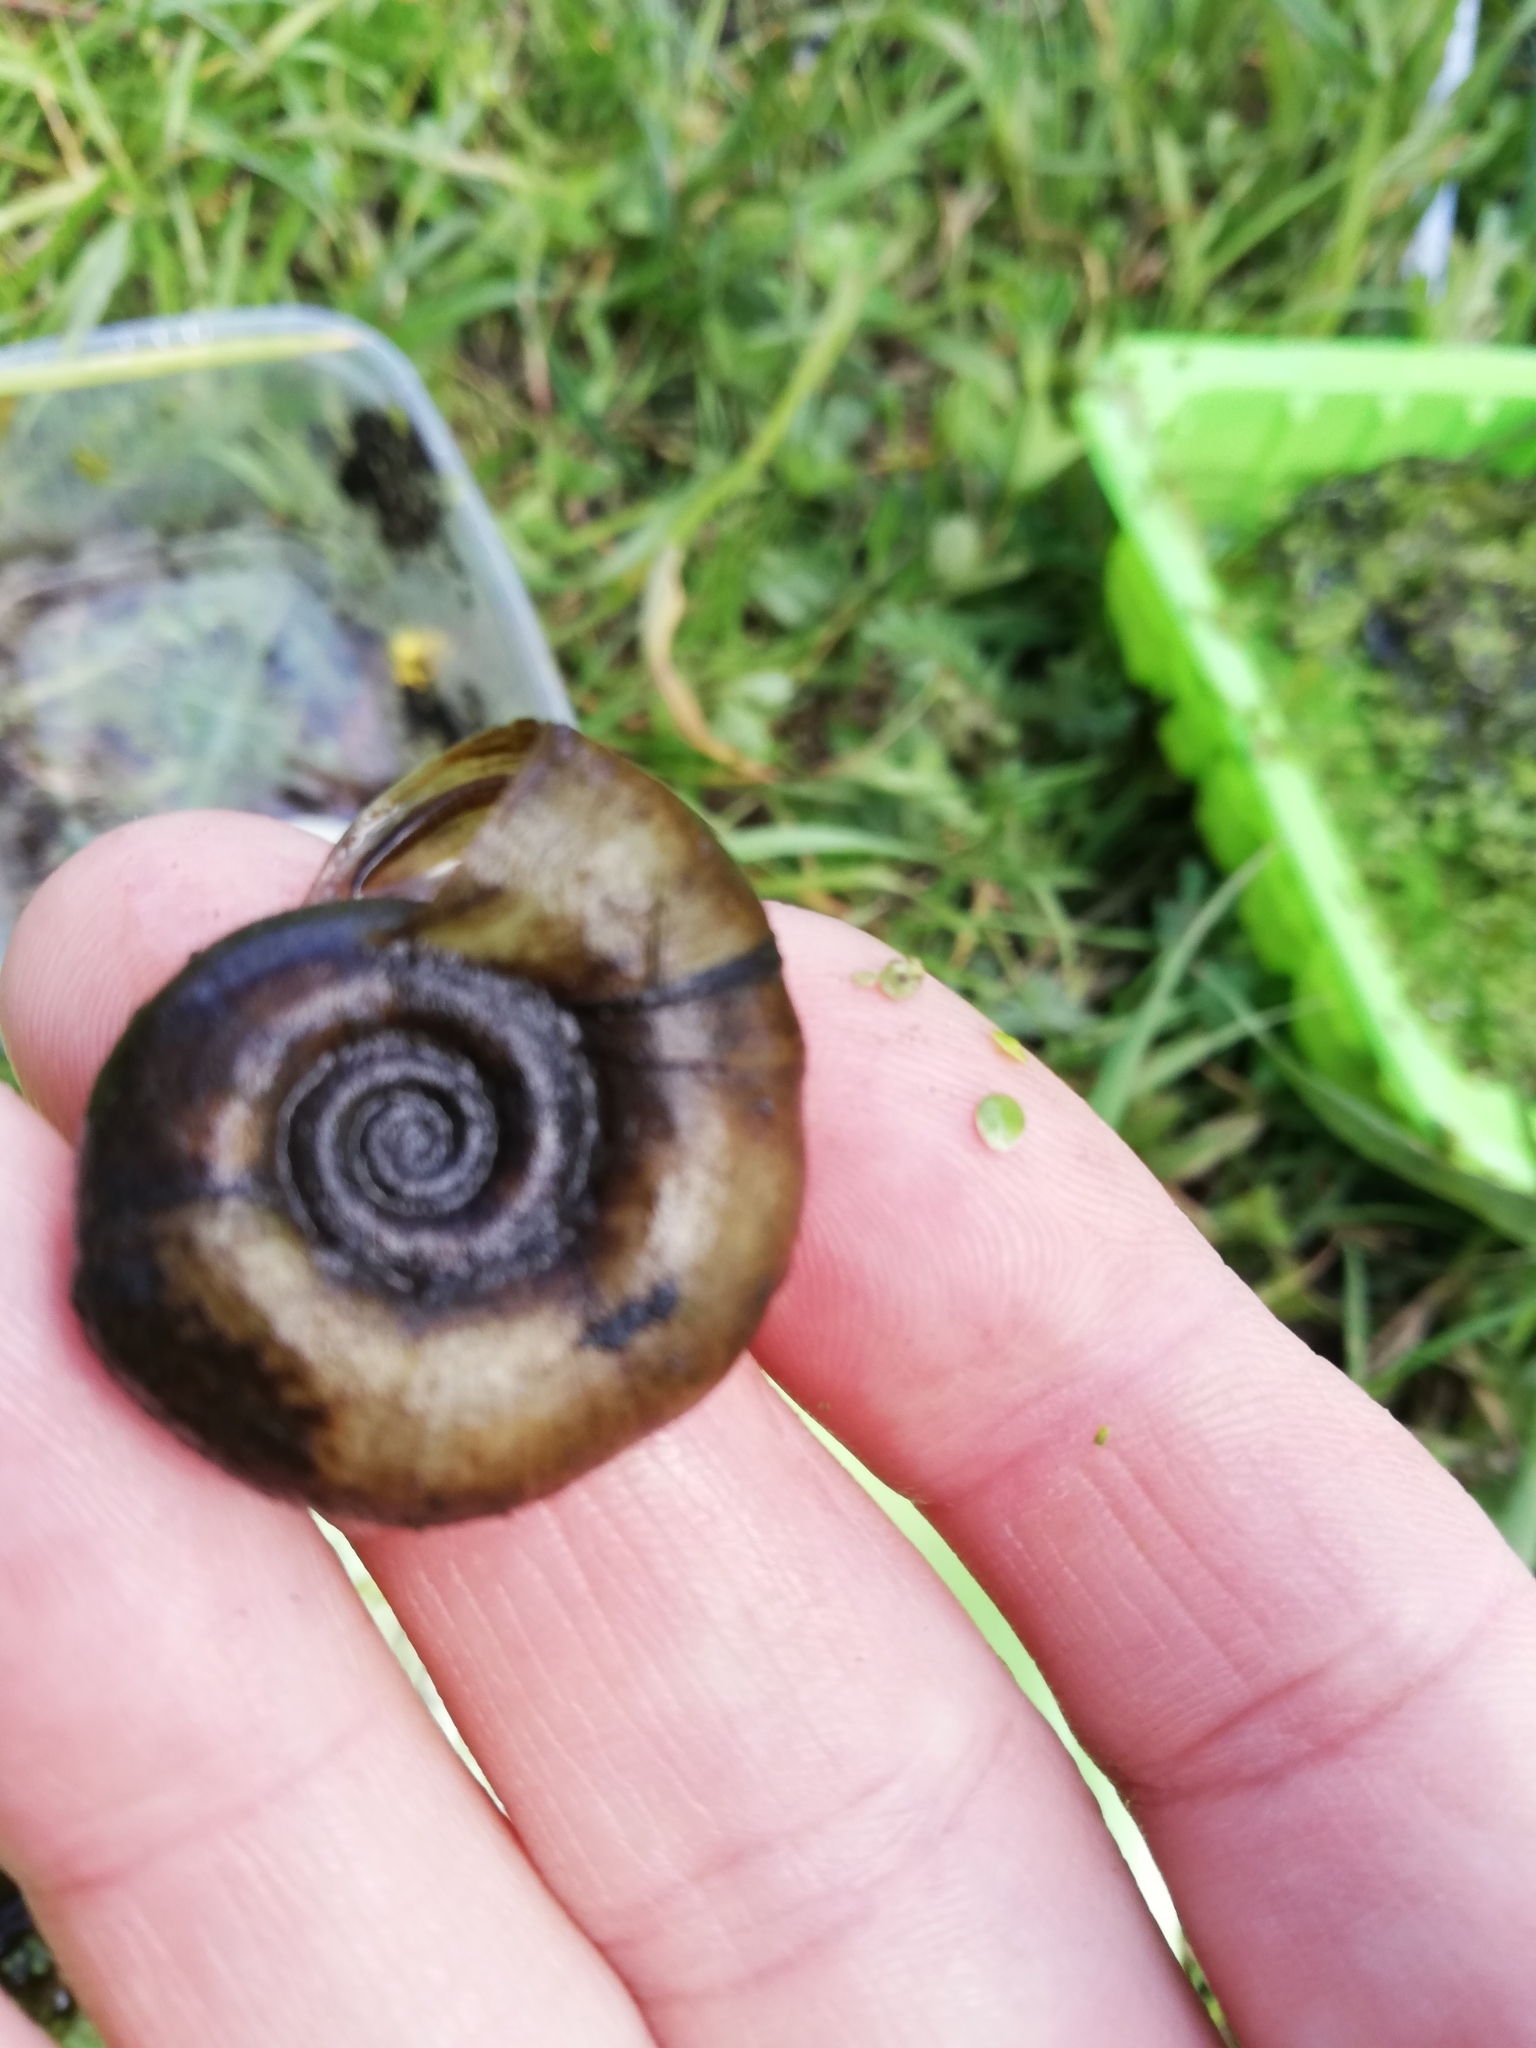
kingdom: Animalia
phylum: Mollusca
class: Gastropoda
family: Planorbidae
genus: Planorbarius
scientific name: Planorbarius corneus
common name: Great ramshorn
